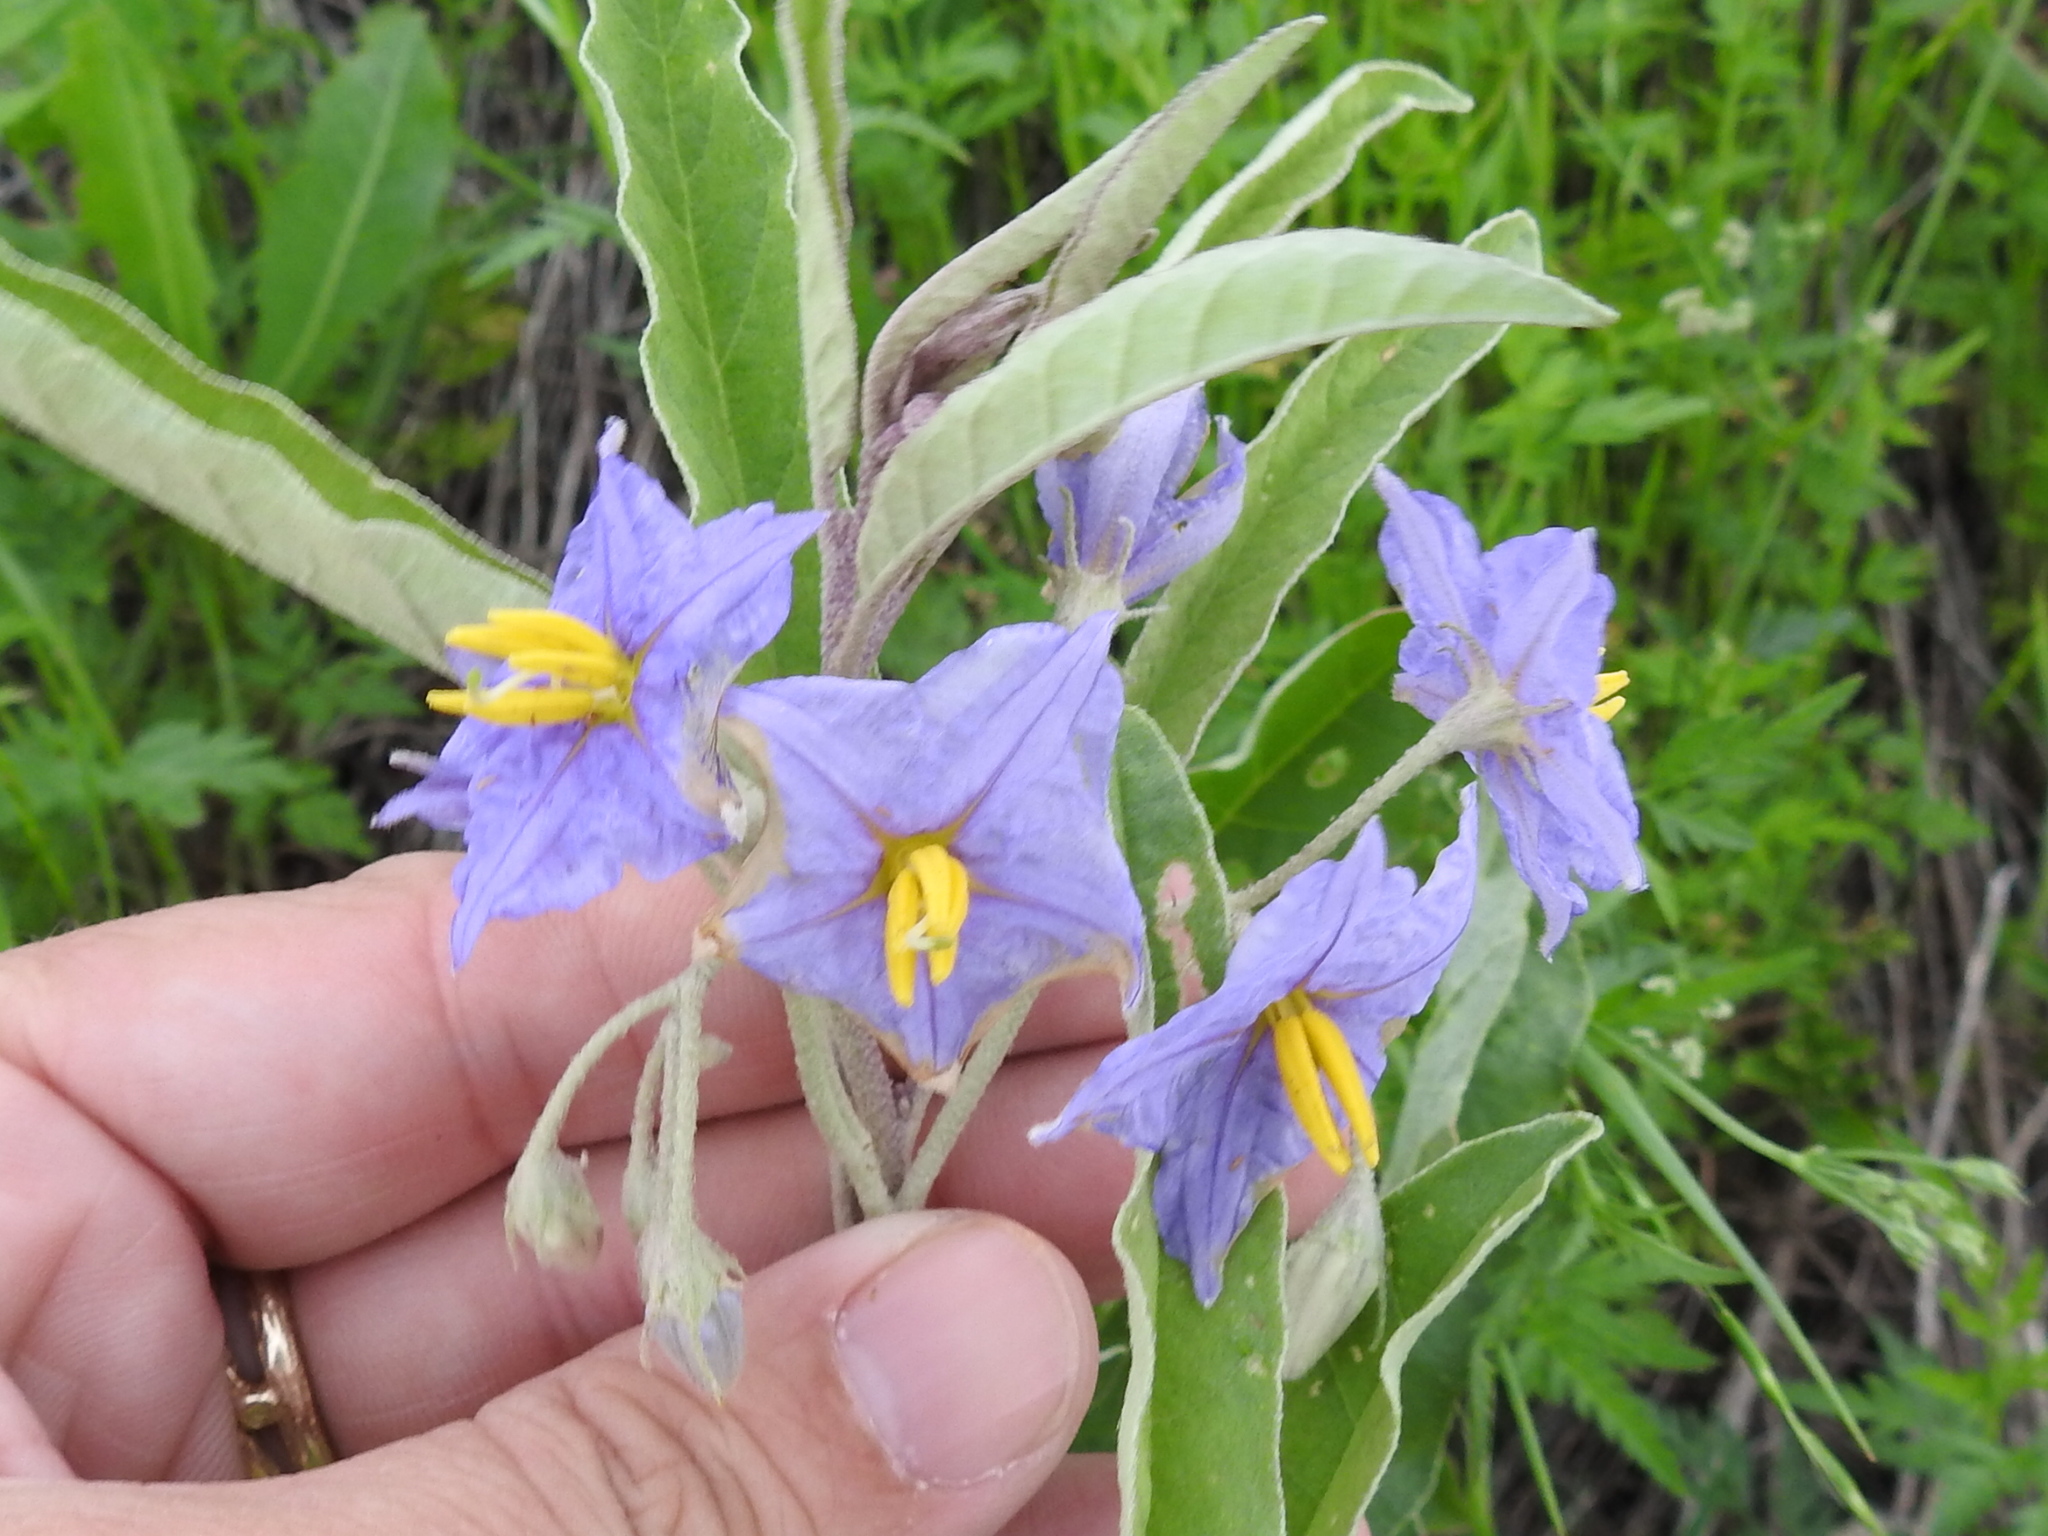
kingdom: Plantae
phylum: Tracheophyta
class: Magnoliopsida
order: Solanales
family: Solanaceae
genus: Solanum
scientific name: Solanum elaeagnifolium
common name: Silverleaf nightshade
